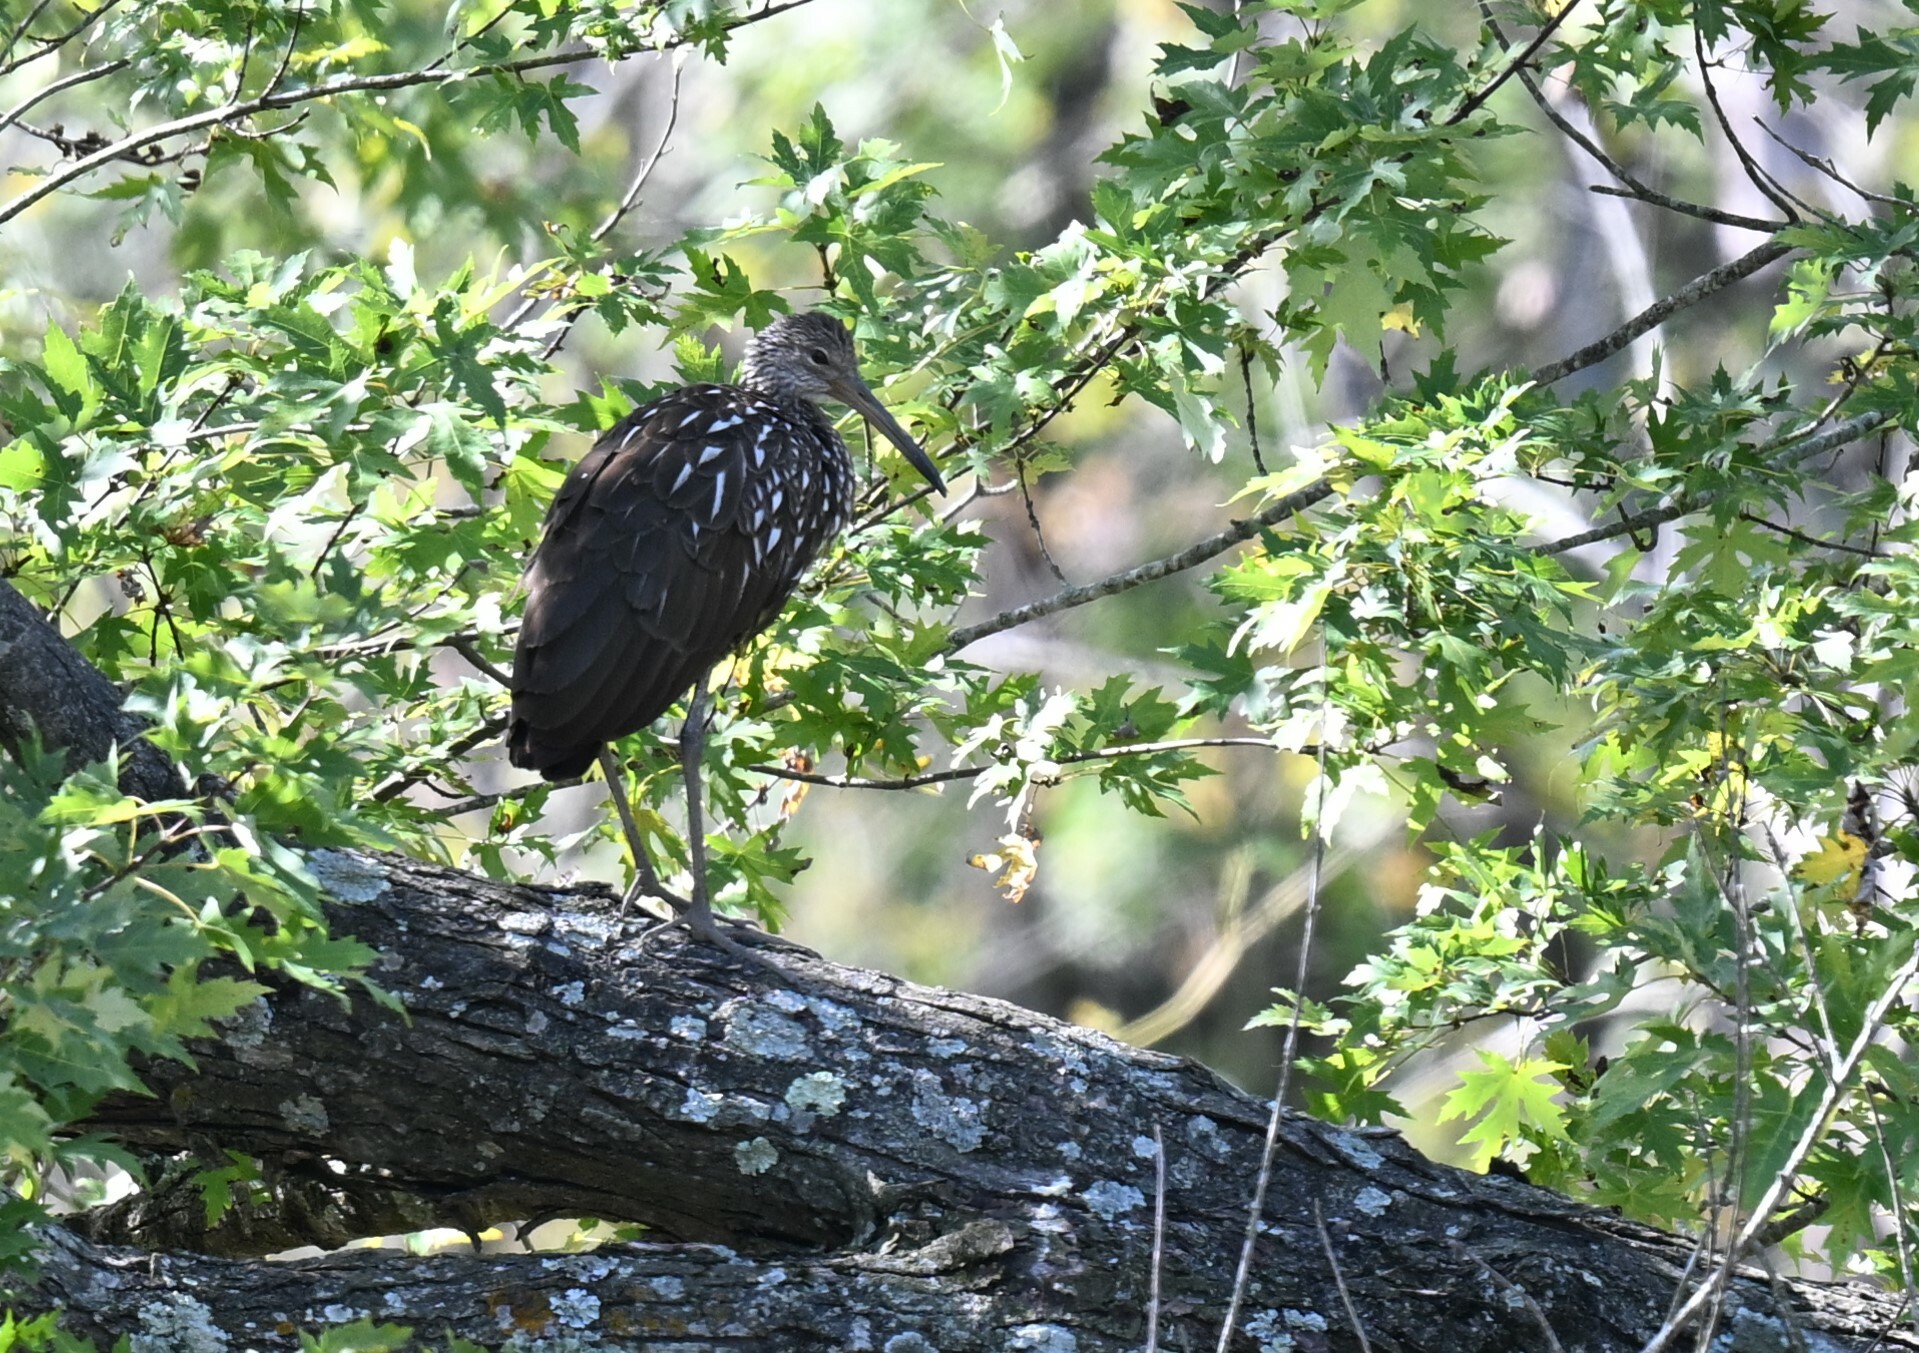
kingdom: Animalia
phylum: Chordata
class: Aves
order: Gruiformes
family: Aramidae
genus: Aramus
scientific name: Aramus guarauna
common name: Limpkin
